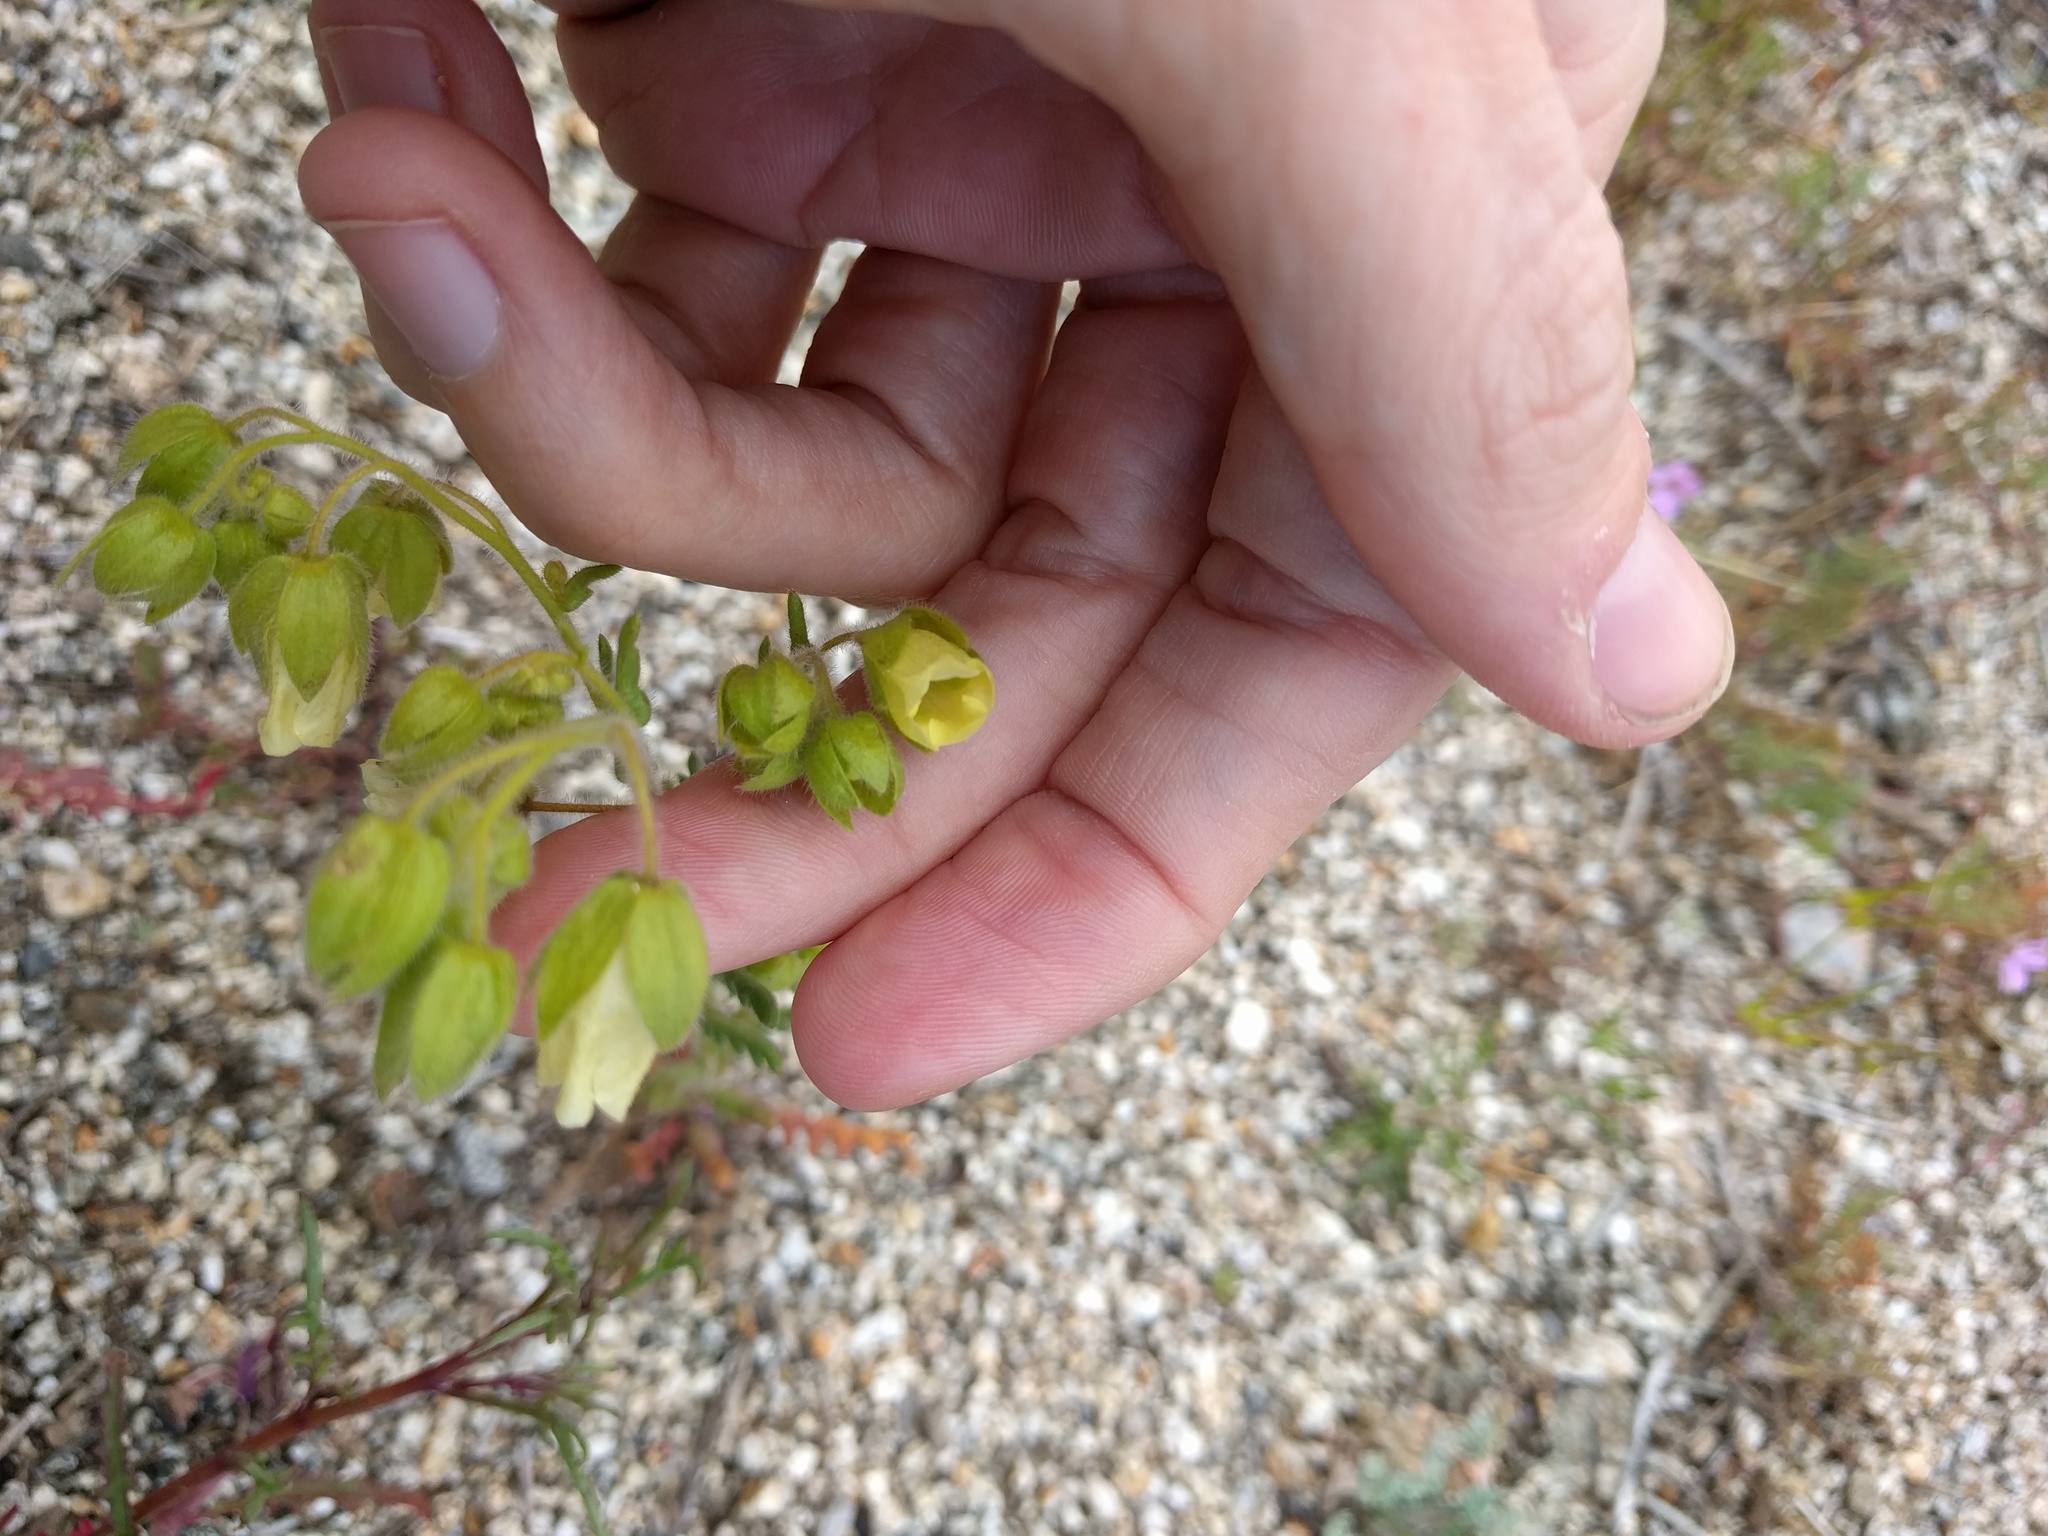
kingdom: Plantae
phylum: Tracheophyta
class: Magnoliopsida
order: Boraginales
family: Hydrophyllaceae
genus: Emmenanthe
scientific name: Emmenanthe penduliflora
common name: Whispering-bells
